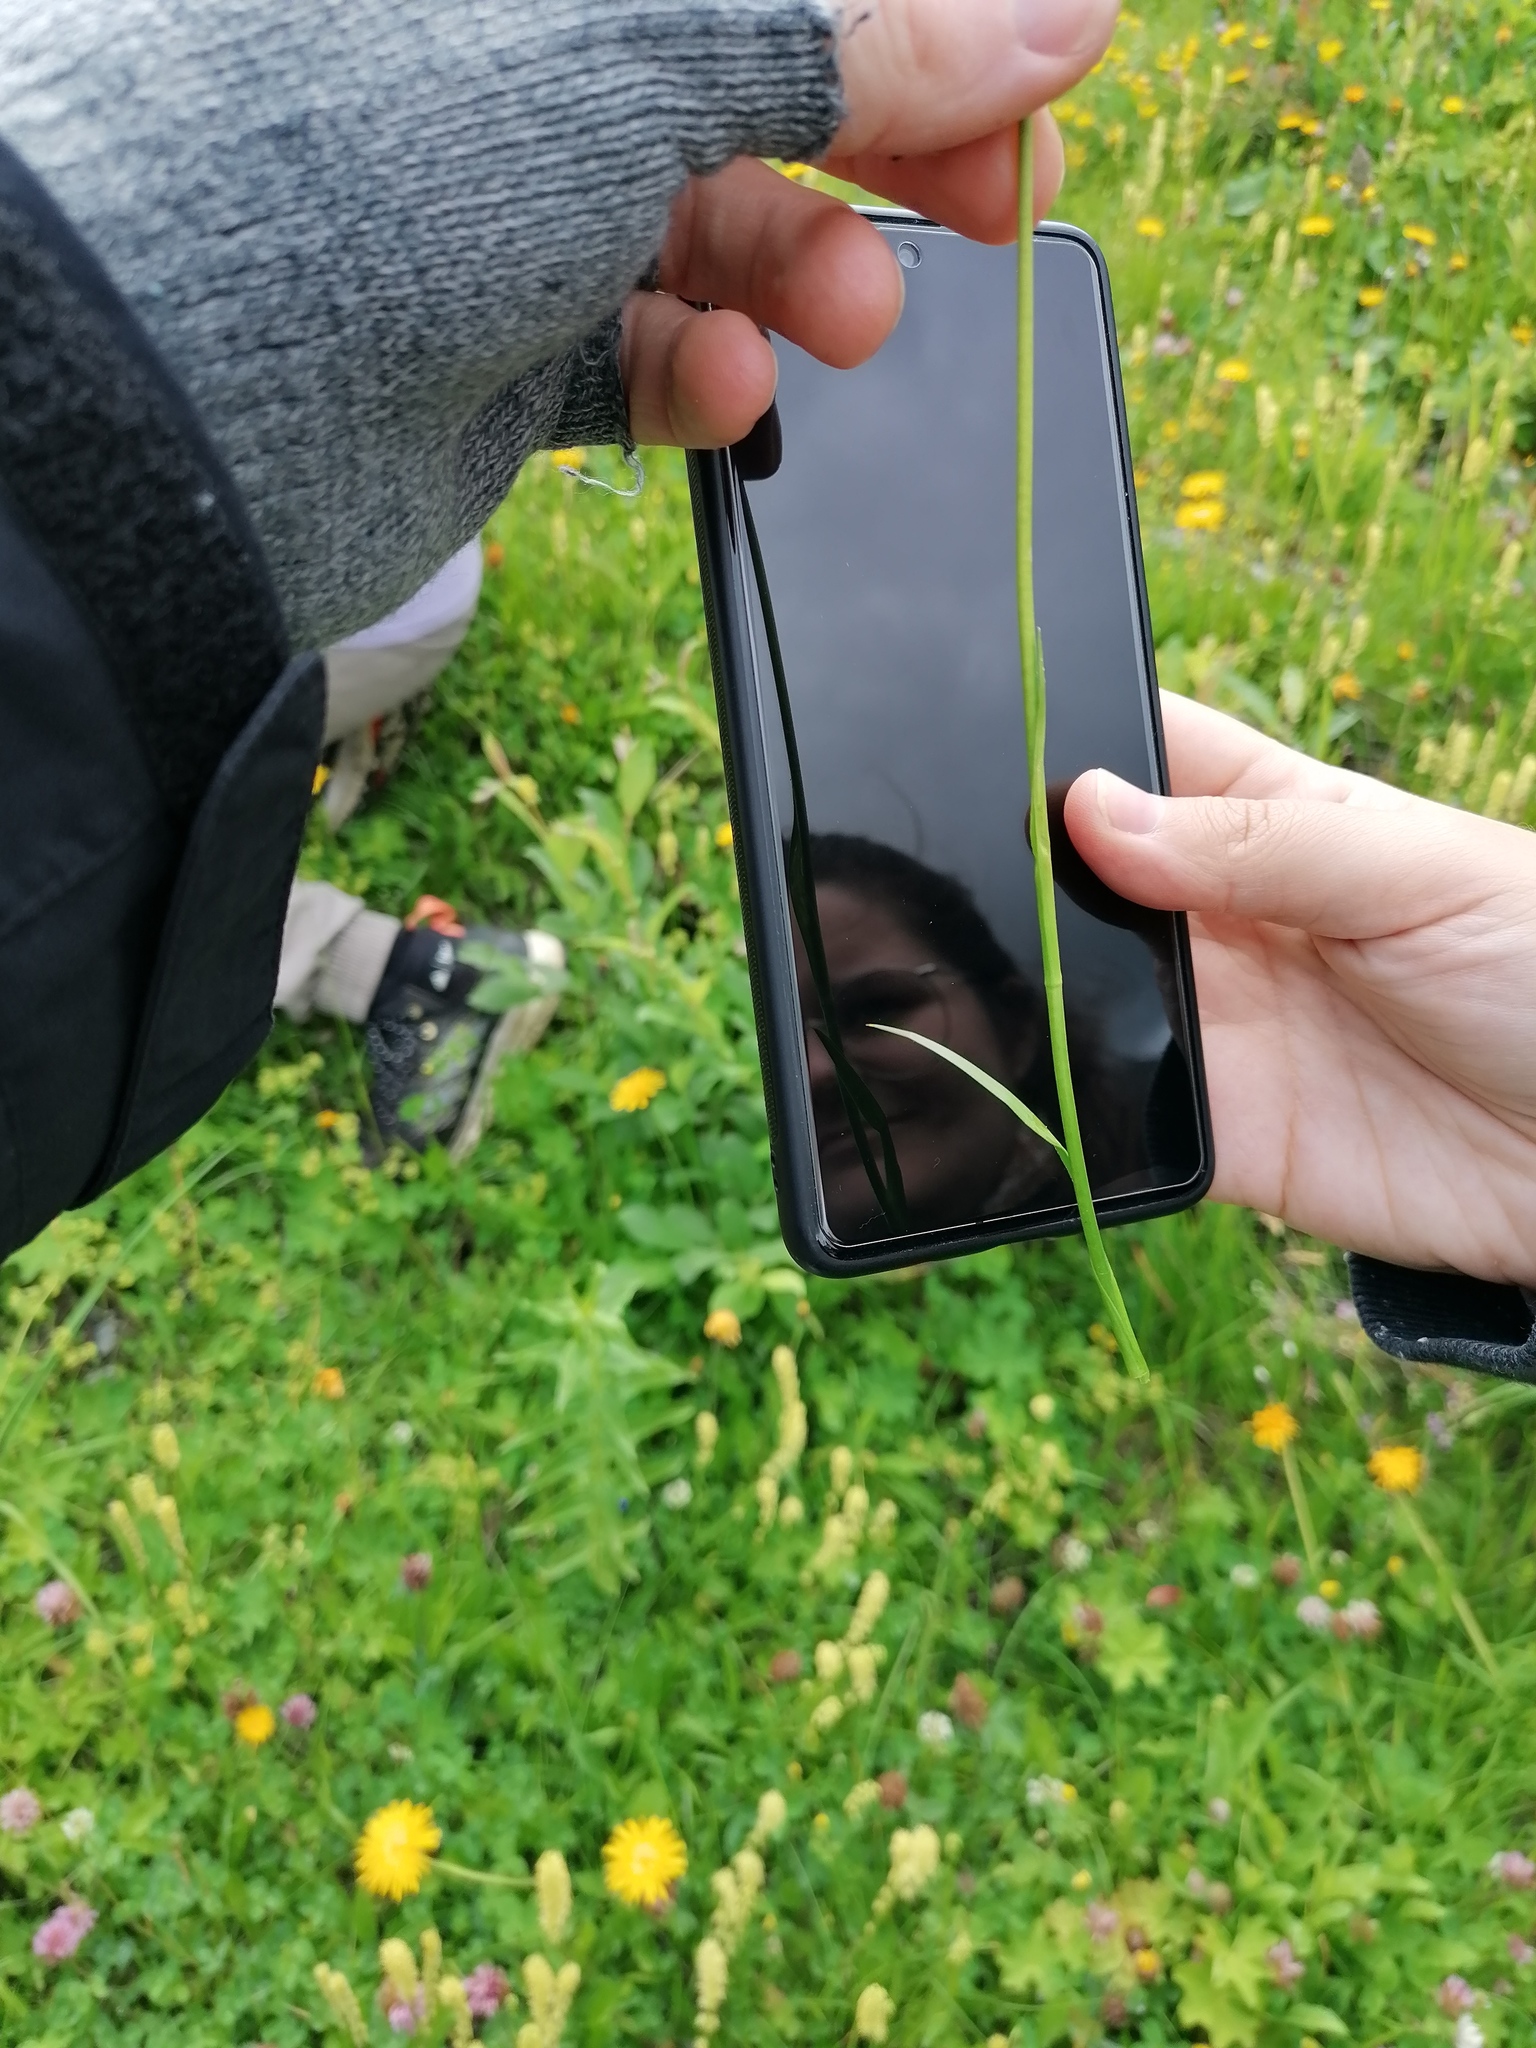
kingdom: Plantae
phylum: Tracheophyta
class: Liliopsida
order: Alismatales
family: Tofieldiaceae
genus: Tofieldia
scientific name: Tofieldia calyculata
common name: German-asphodel
